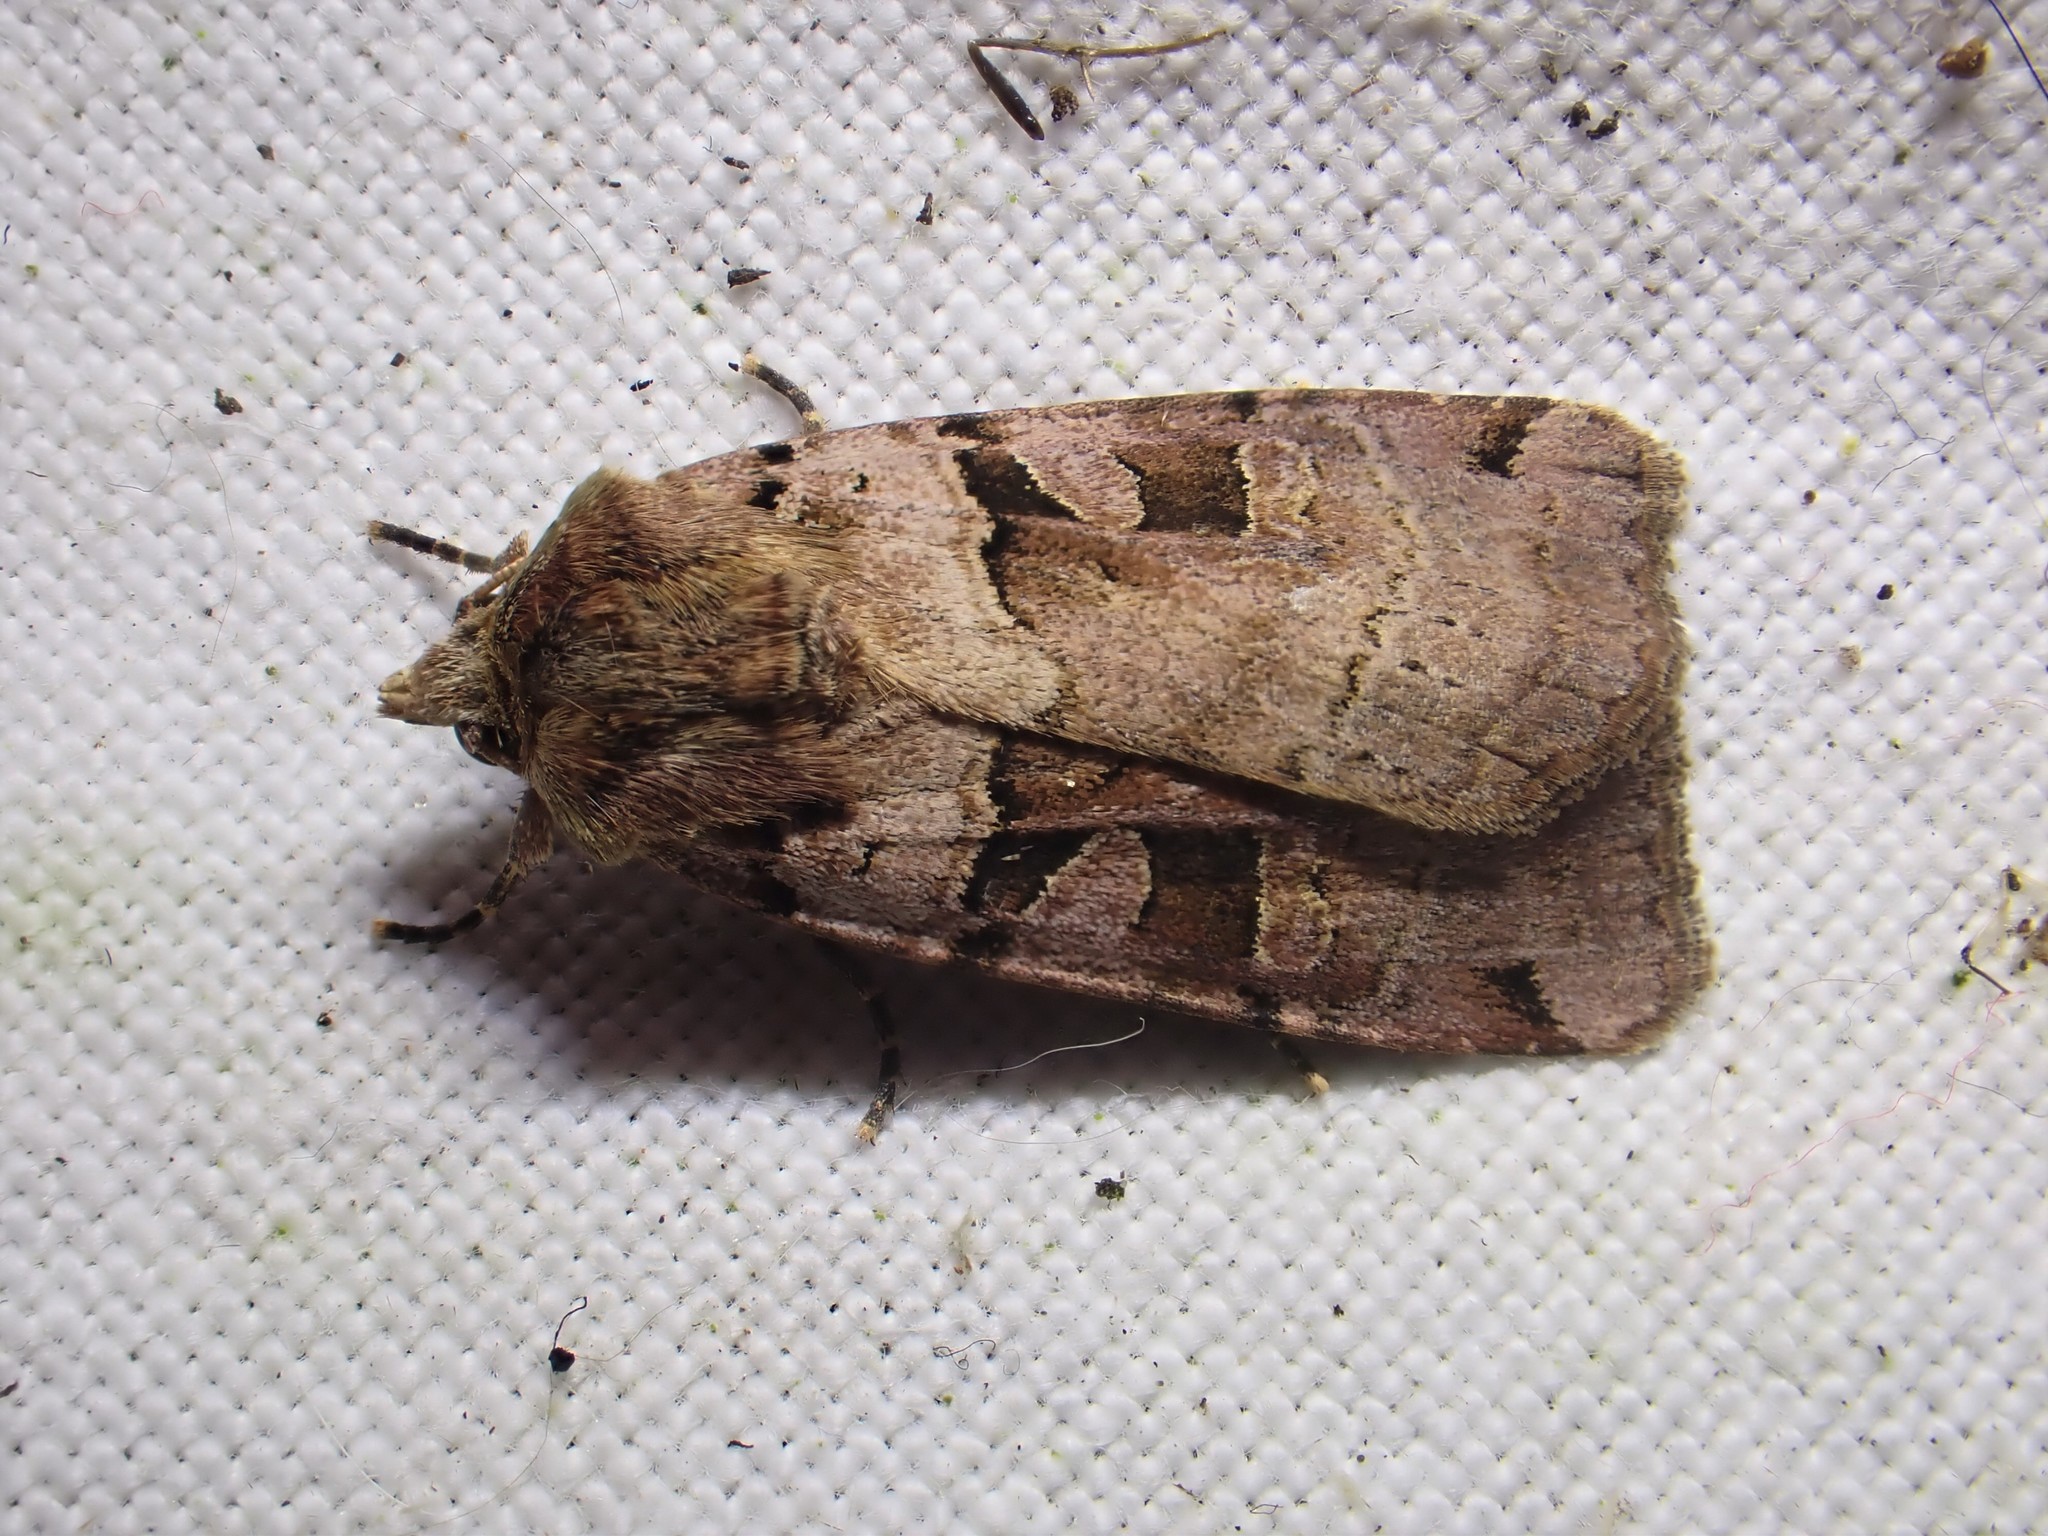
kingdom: Animalia
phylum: Arthropoda
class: Insecta
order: Lepidoptera
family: Noctuidae
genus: Xestia
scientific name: Xestia triangulum
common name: Double square-spot
